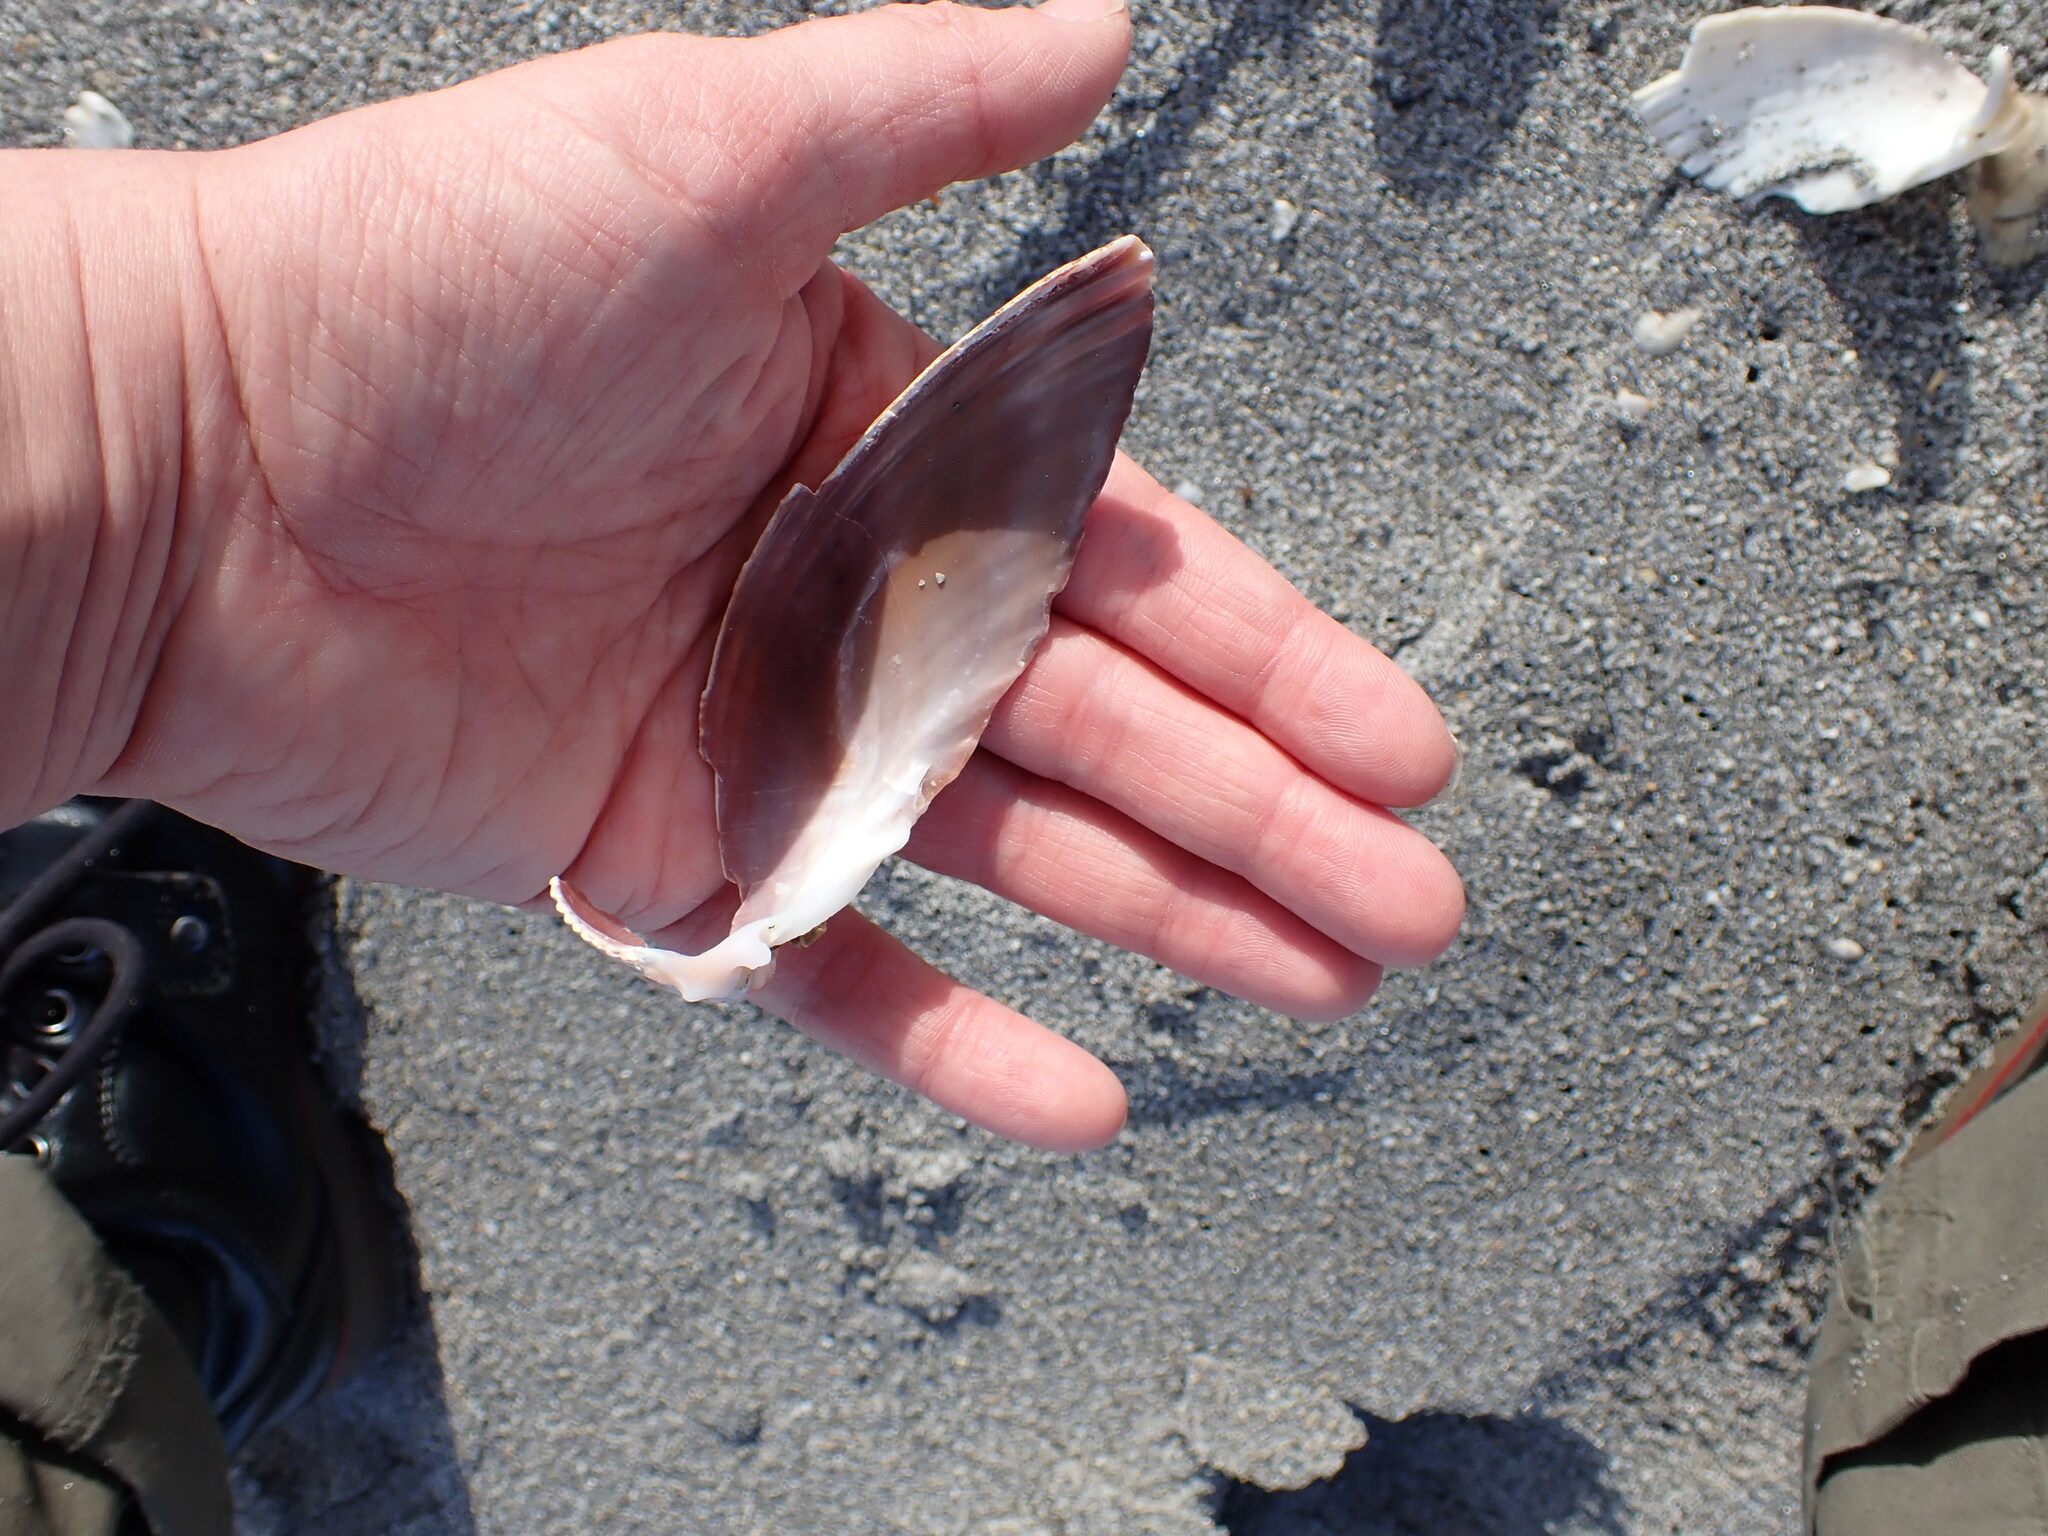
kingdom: Animalia
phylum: Mollusca
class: Bivalvia
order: Cardiida
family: Cardiidae
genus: Dinocardium
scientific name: Dinocardium robustum
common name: Atlantic giant cockle
